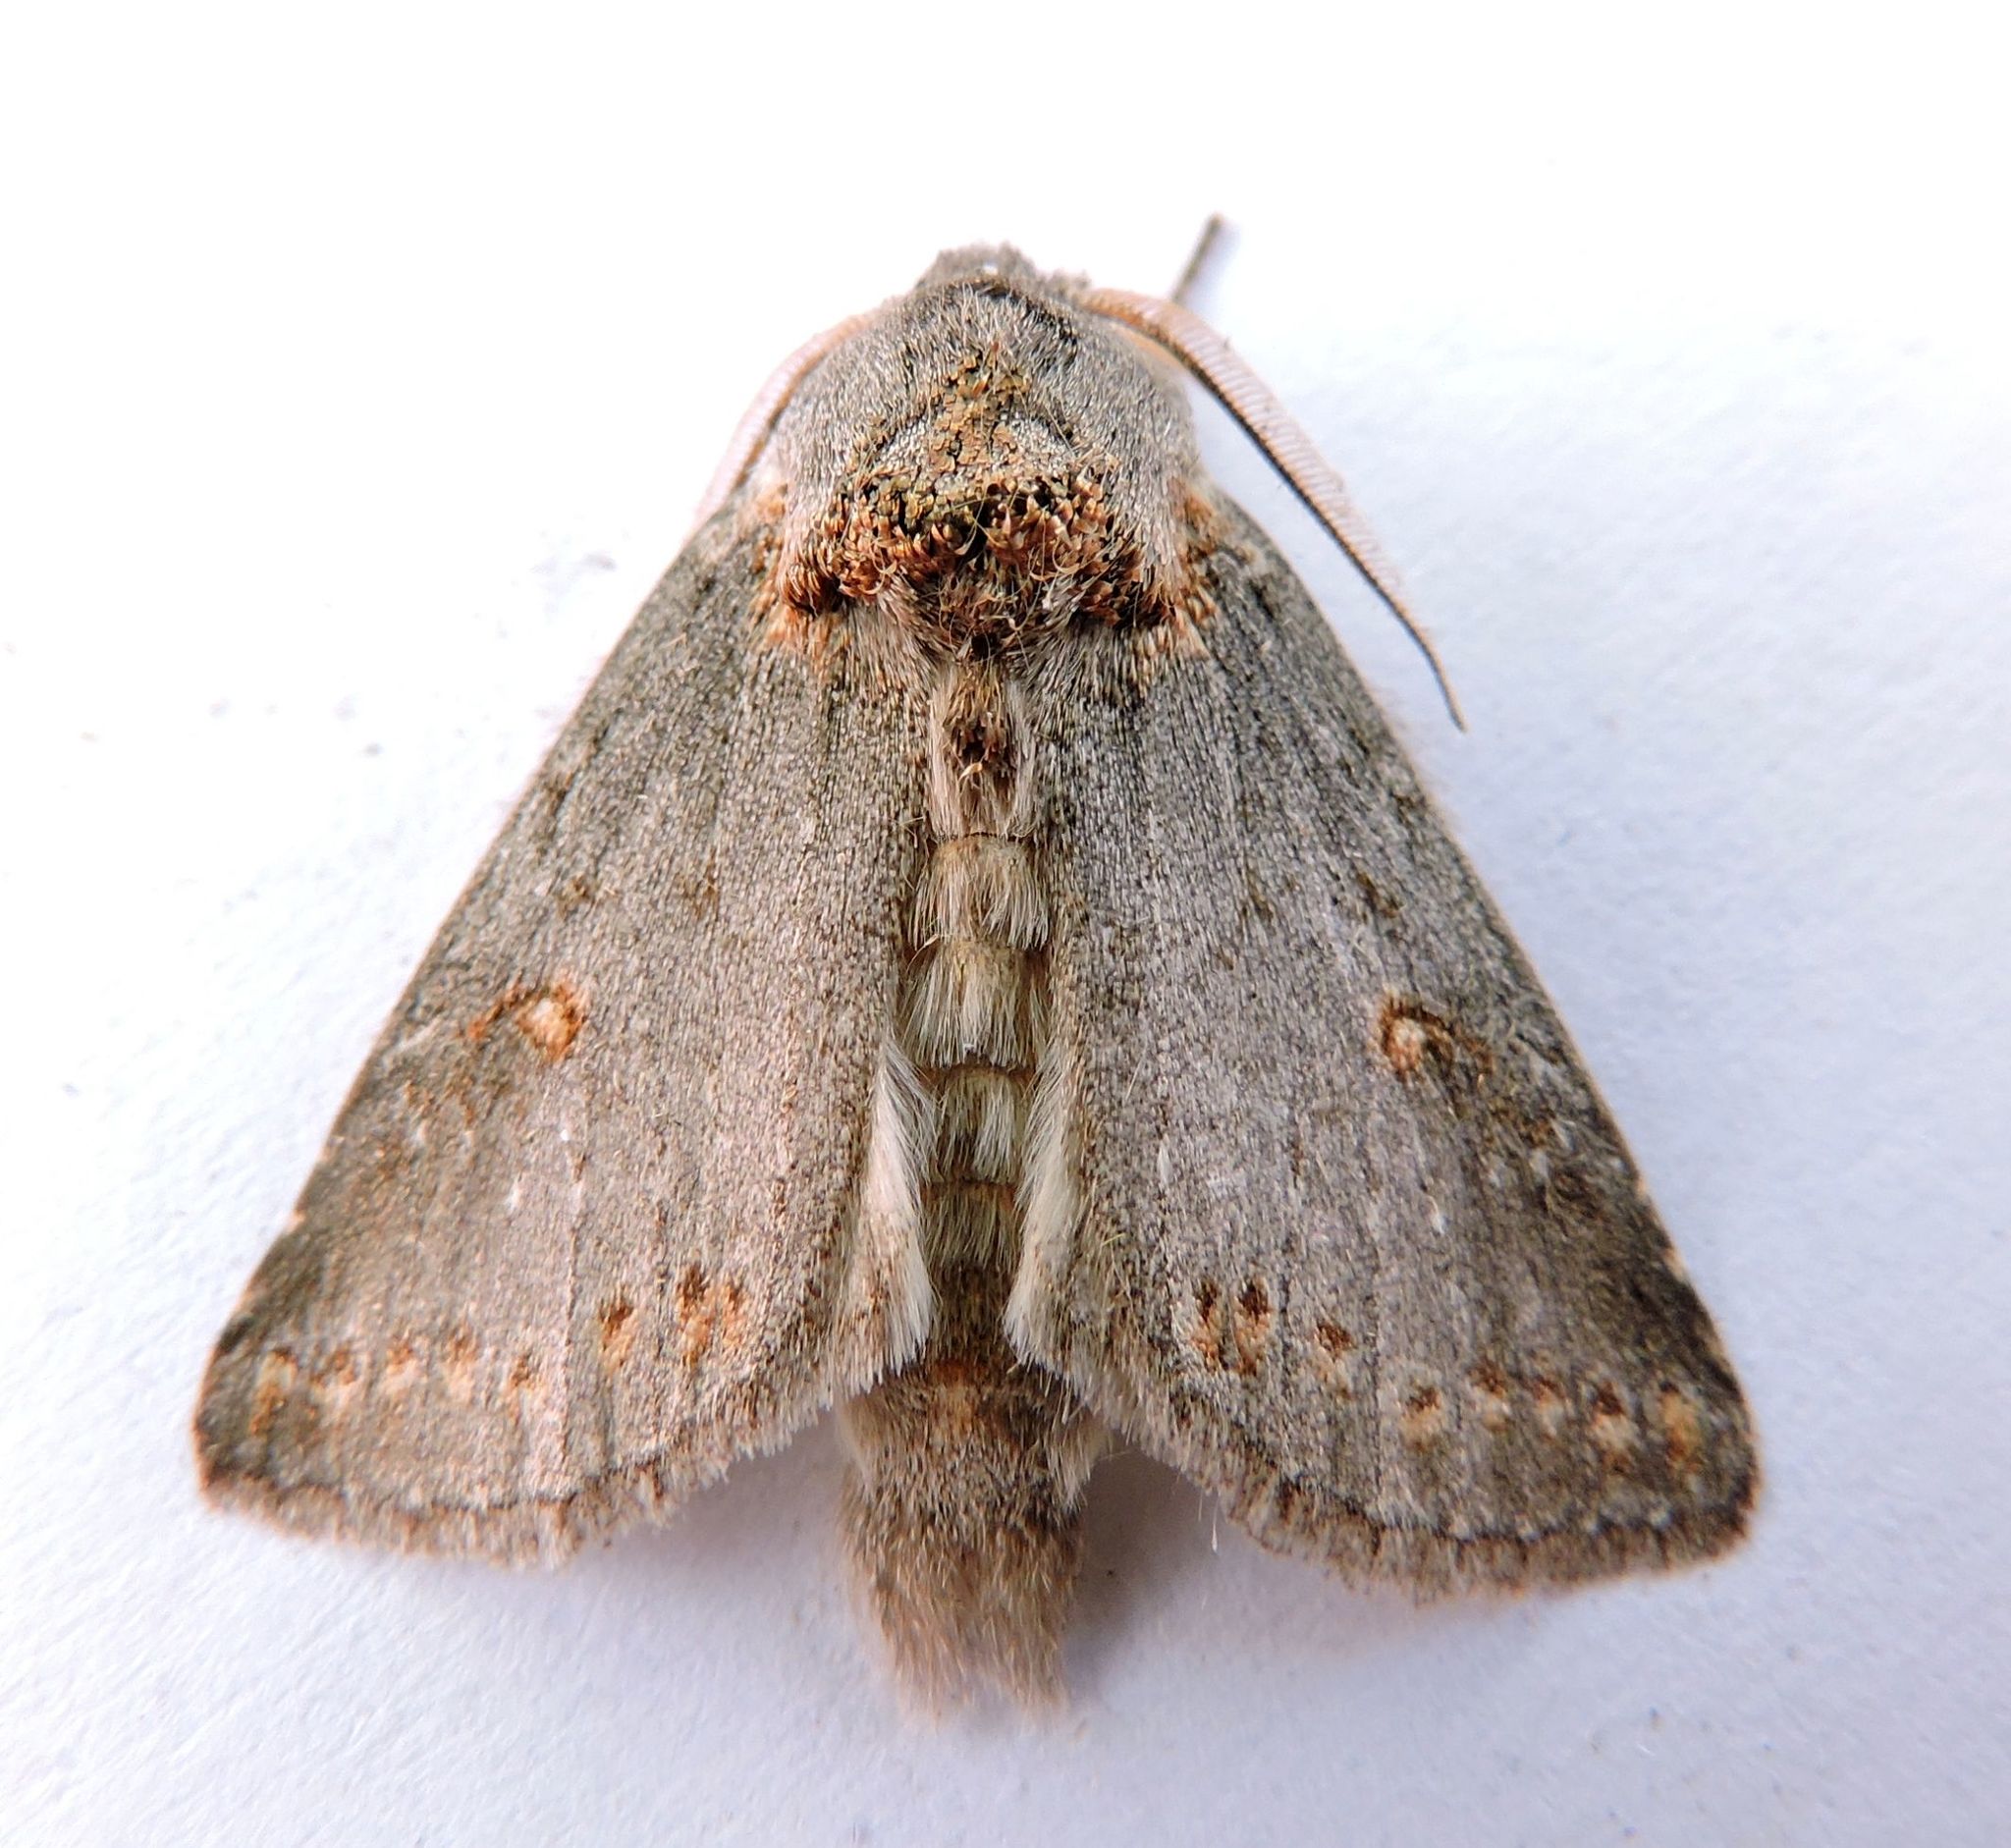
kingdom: Animalia
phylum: Arthropoda
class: Insecta
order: Lepidoptera
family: Notodontidae
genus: Theroa
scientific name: Theroa zethus
